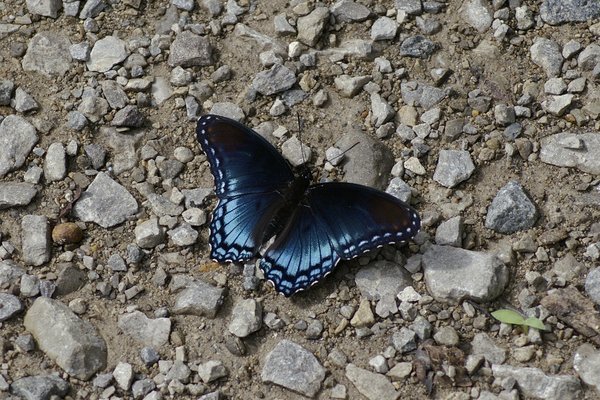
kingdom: Animalia
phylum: Arthropoda
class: Insecta
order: Lepidoptera
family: Nymphalidae
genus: Limenitis
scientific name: Limenitis astyanax
